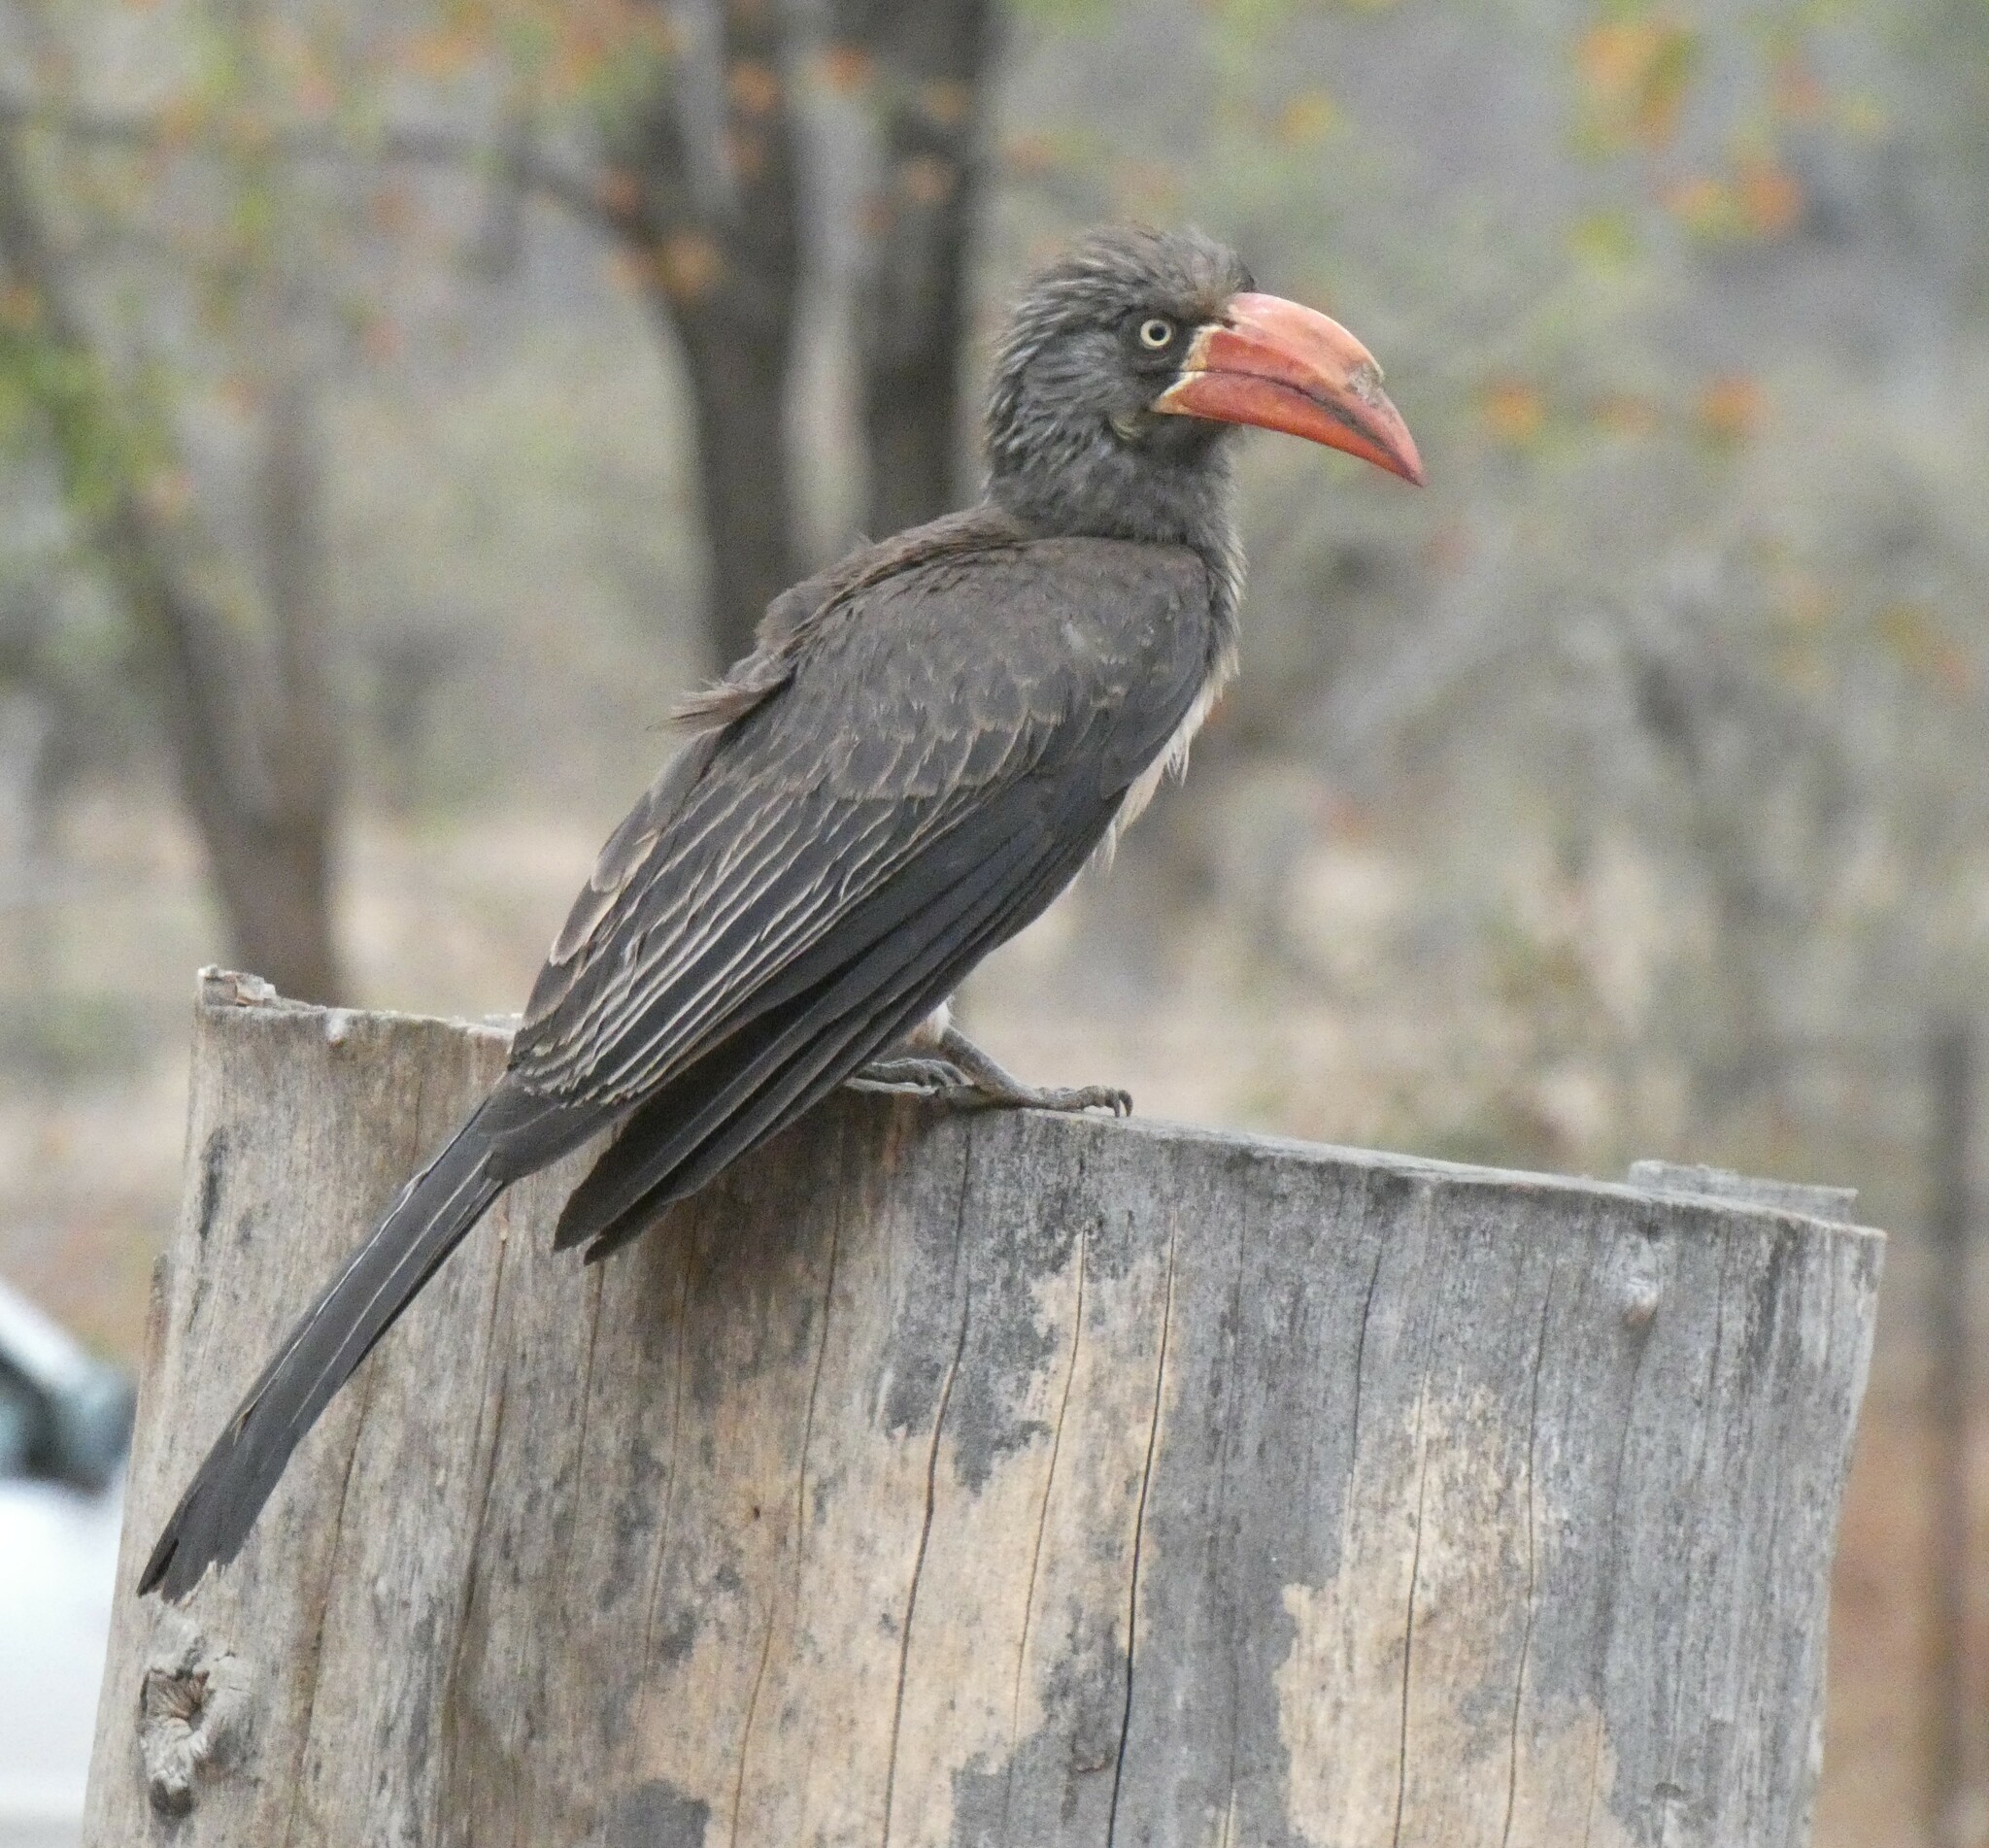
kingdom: Animalia
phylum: Chordata
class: Aves
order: Bucerotiformes
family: Bucerotidae
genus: Lophoceros
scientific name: Lophoceros alboterminatus
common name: Crowned hornbill
